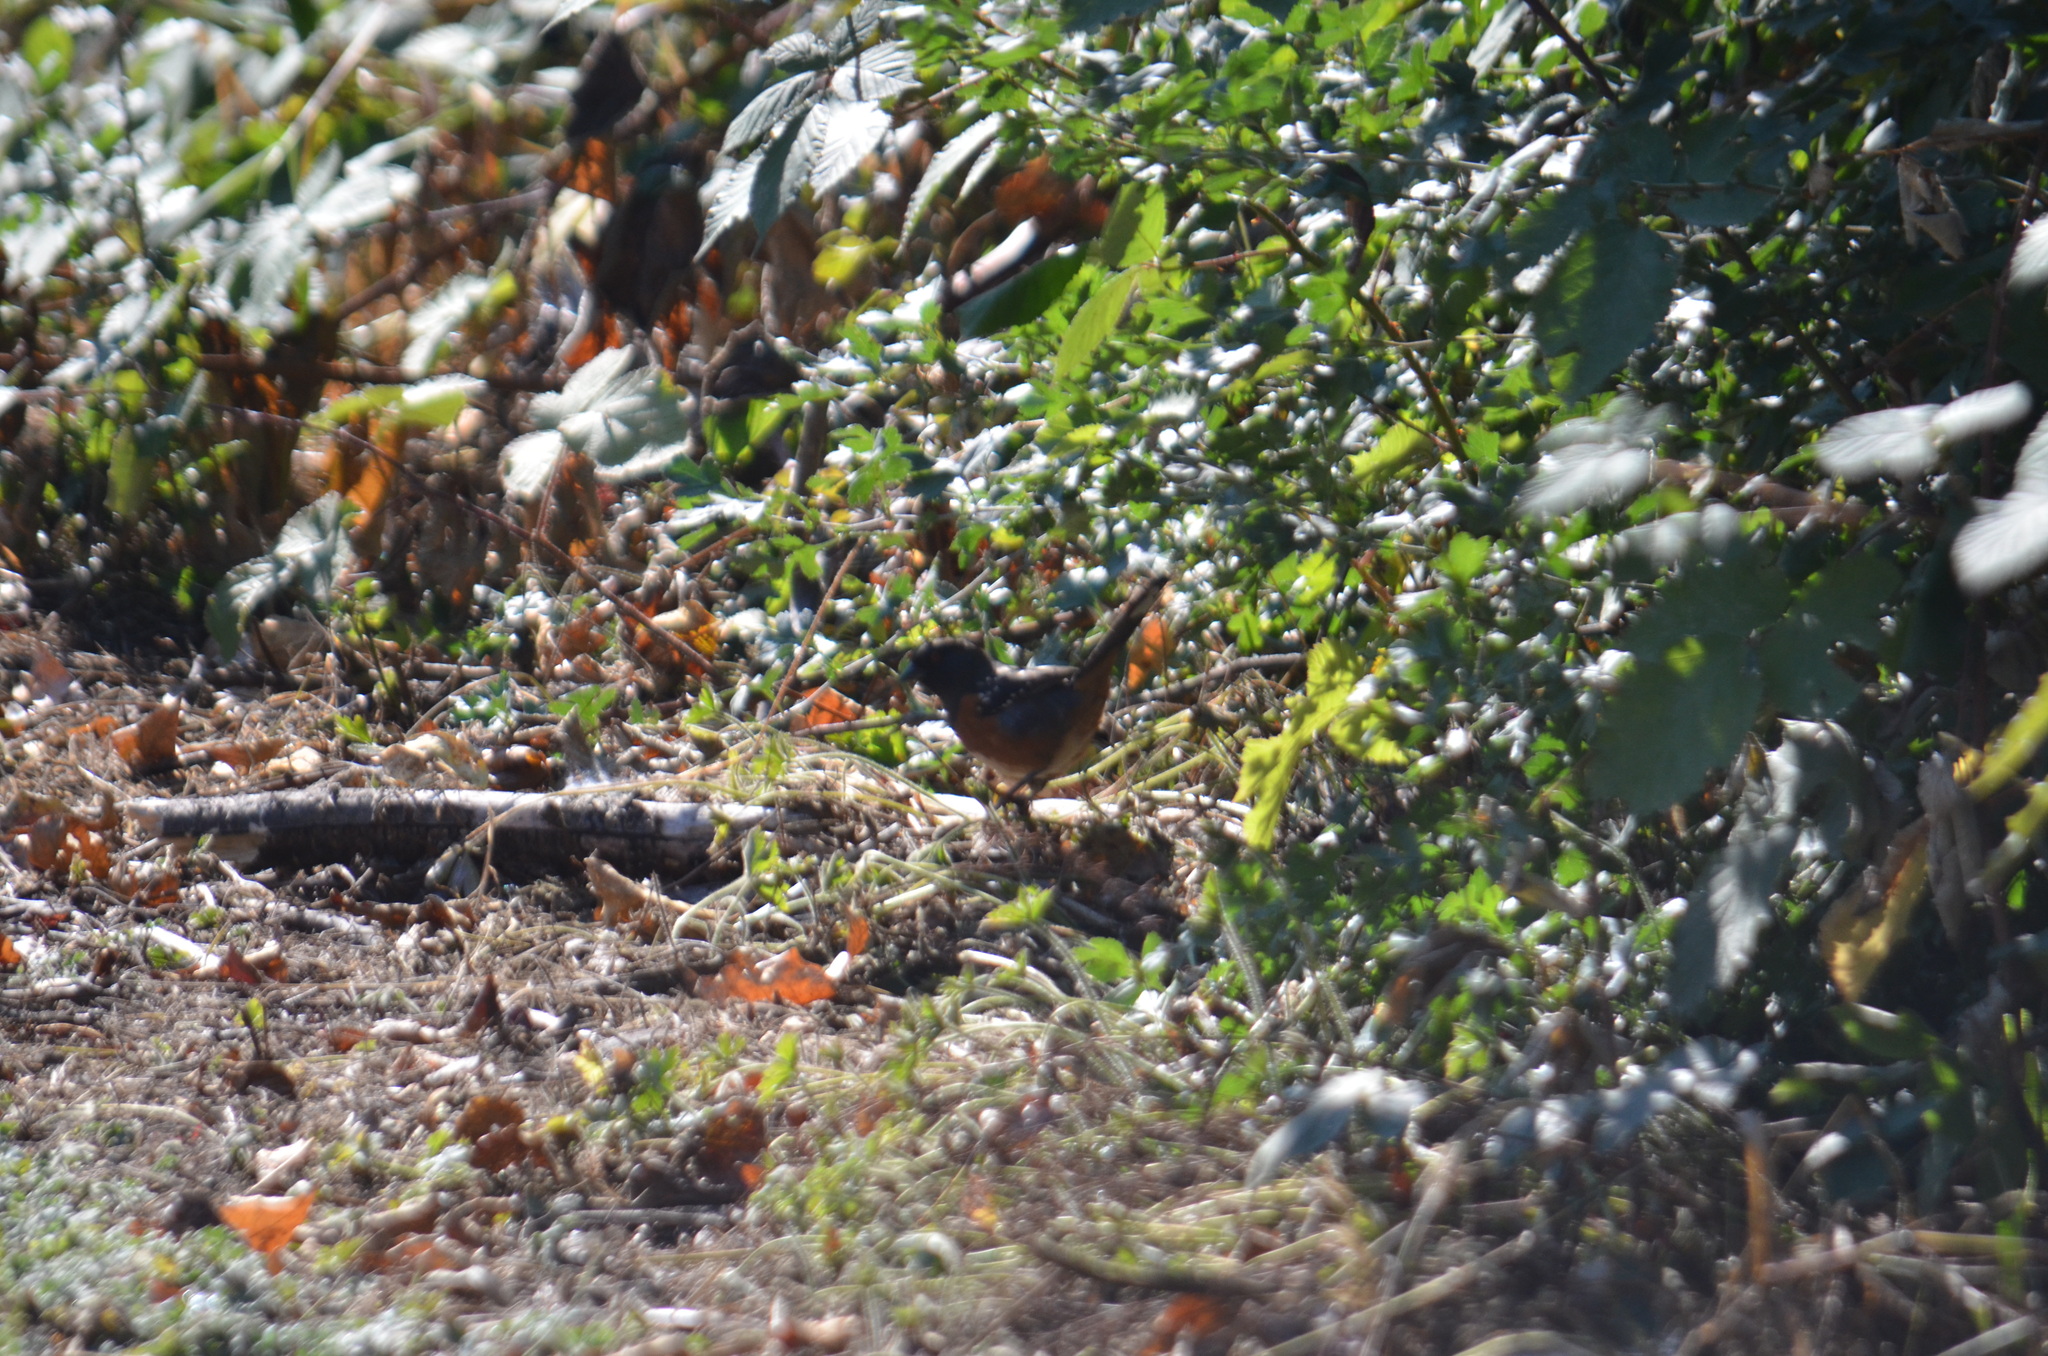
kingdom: Animalia
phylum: Chordata
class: Aves
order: Passeriformes
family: Passerellidae
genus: Pipilo
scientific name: Pipilo maculatus
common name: Spotted towhee
